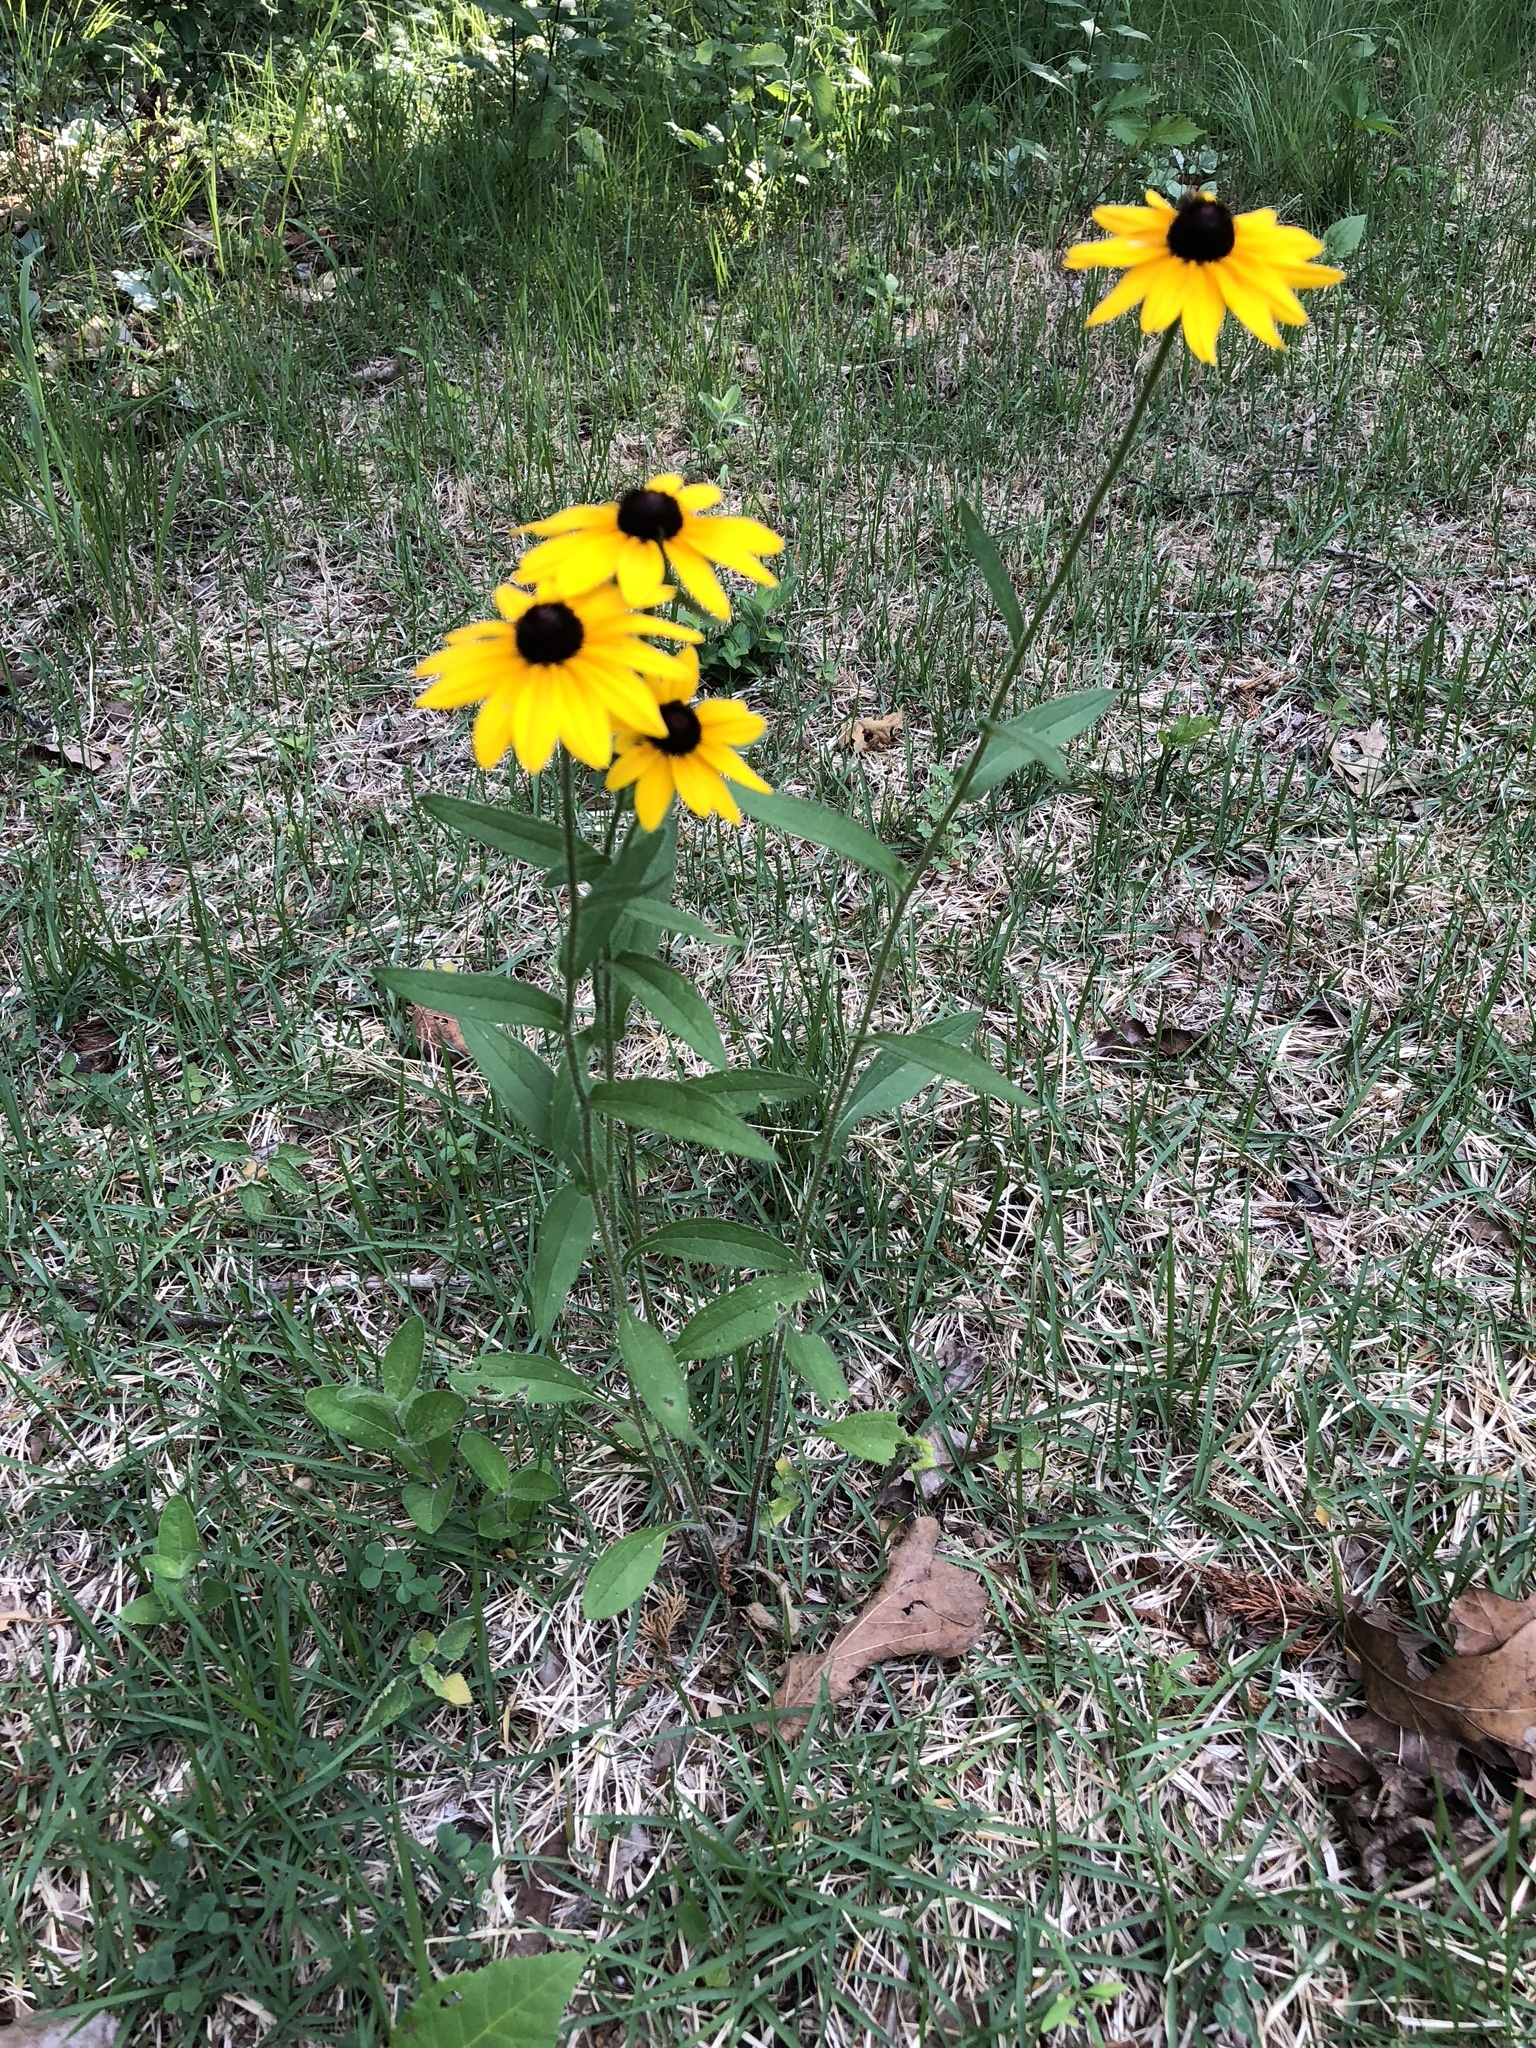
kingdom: Plantae
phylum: Tracheophyta
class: Magnoliopsida
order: Asterales
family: Asteraceae
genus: Rudbeckia
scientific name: Rudbeckia hirta
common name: Black-eyed-susan
